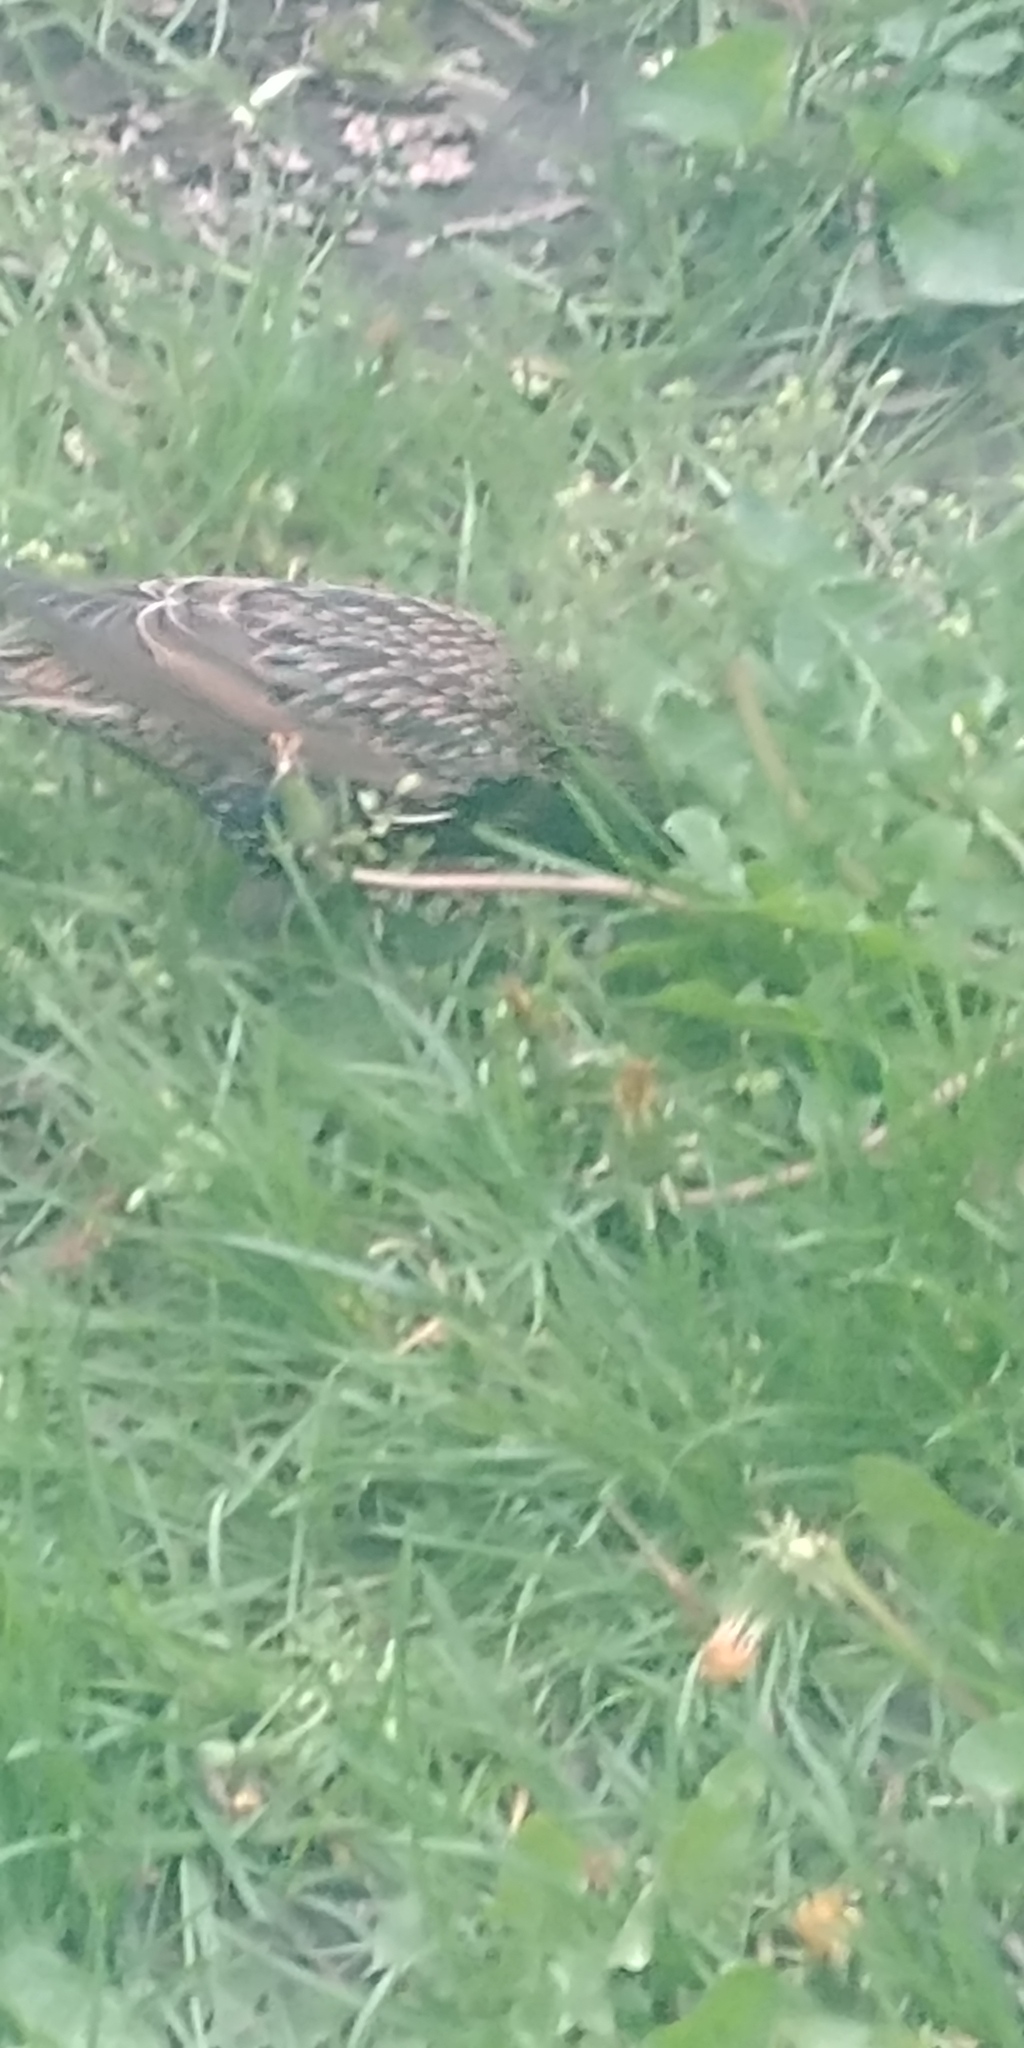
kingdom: Animalia
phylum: Chordata
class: Aves
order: Passeriformes
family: Sturnidae
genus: Sturnus
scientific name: Sturnus vulgaris
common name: Common starling
